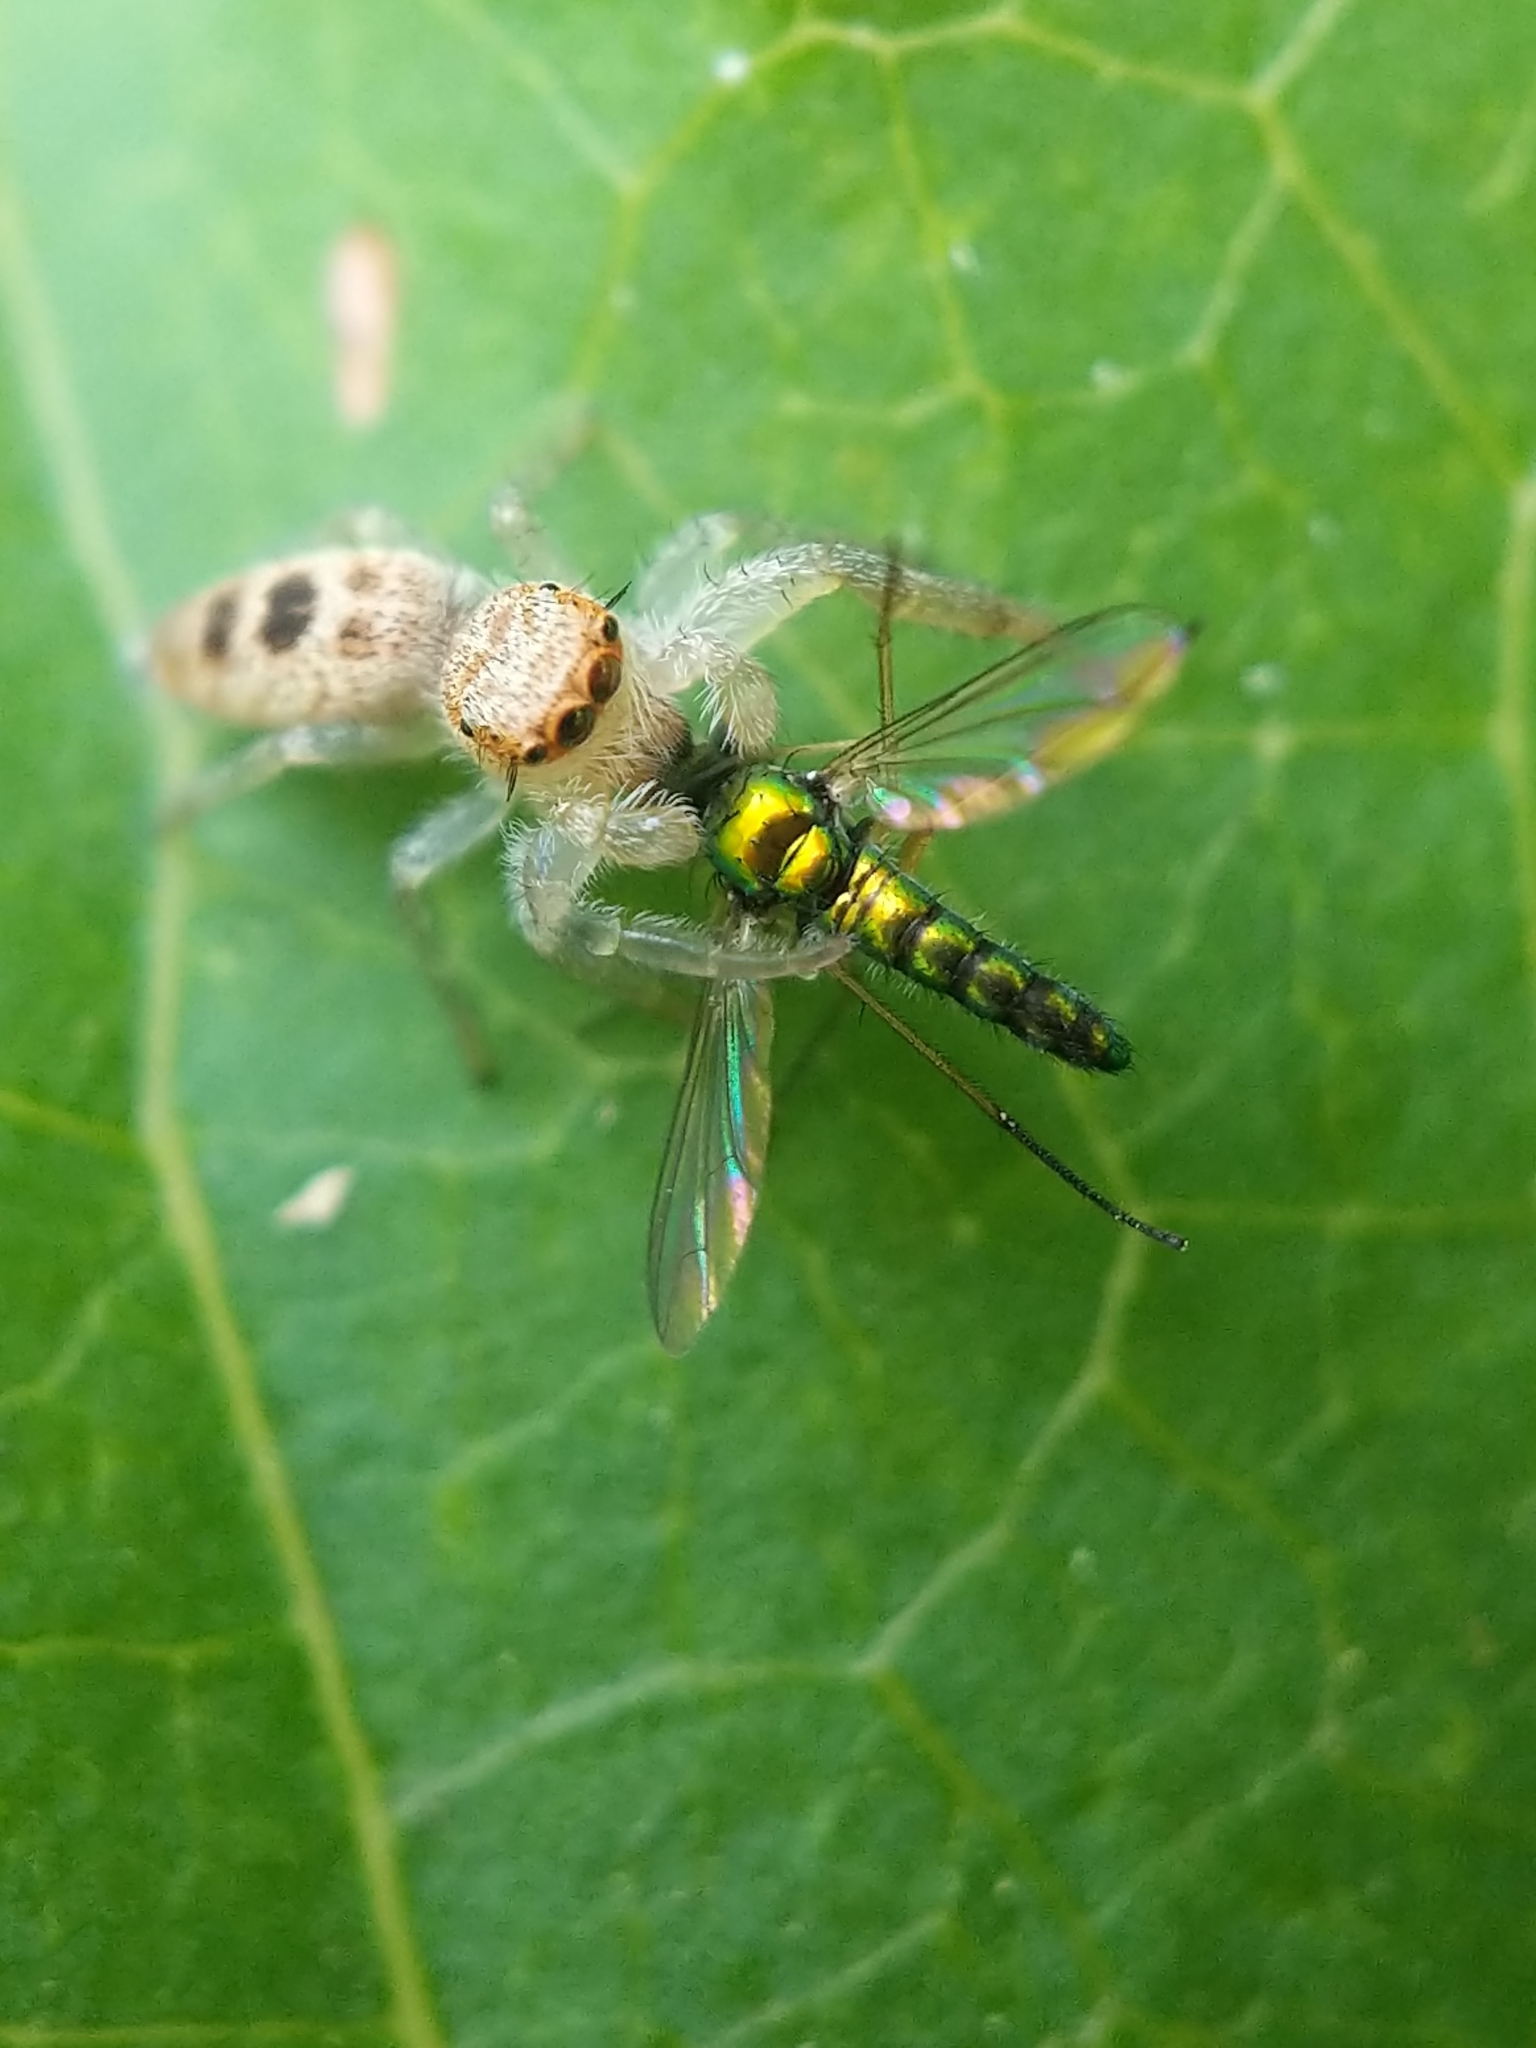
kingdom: Animalia
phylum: Arthropoda
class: Arachnida
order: Araneae
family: Salticidae
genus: Hentzia
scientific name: Hentzia mitrata
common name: White-jawed jumping spider
